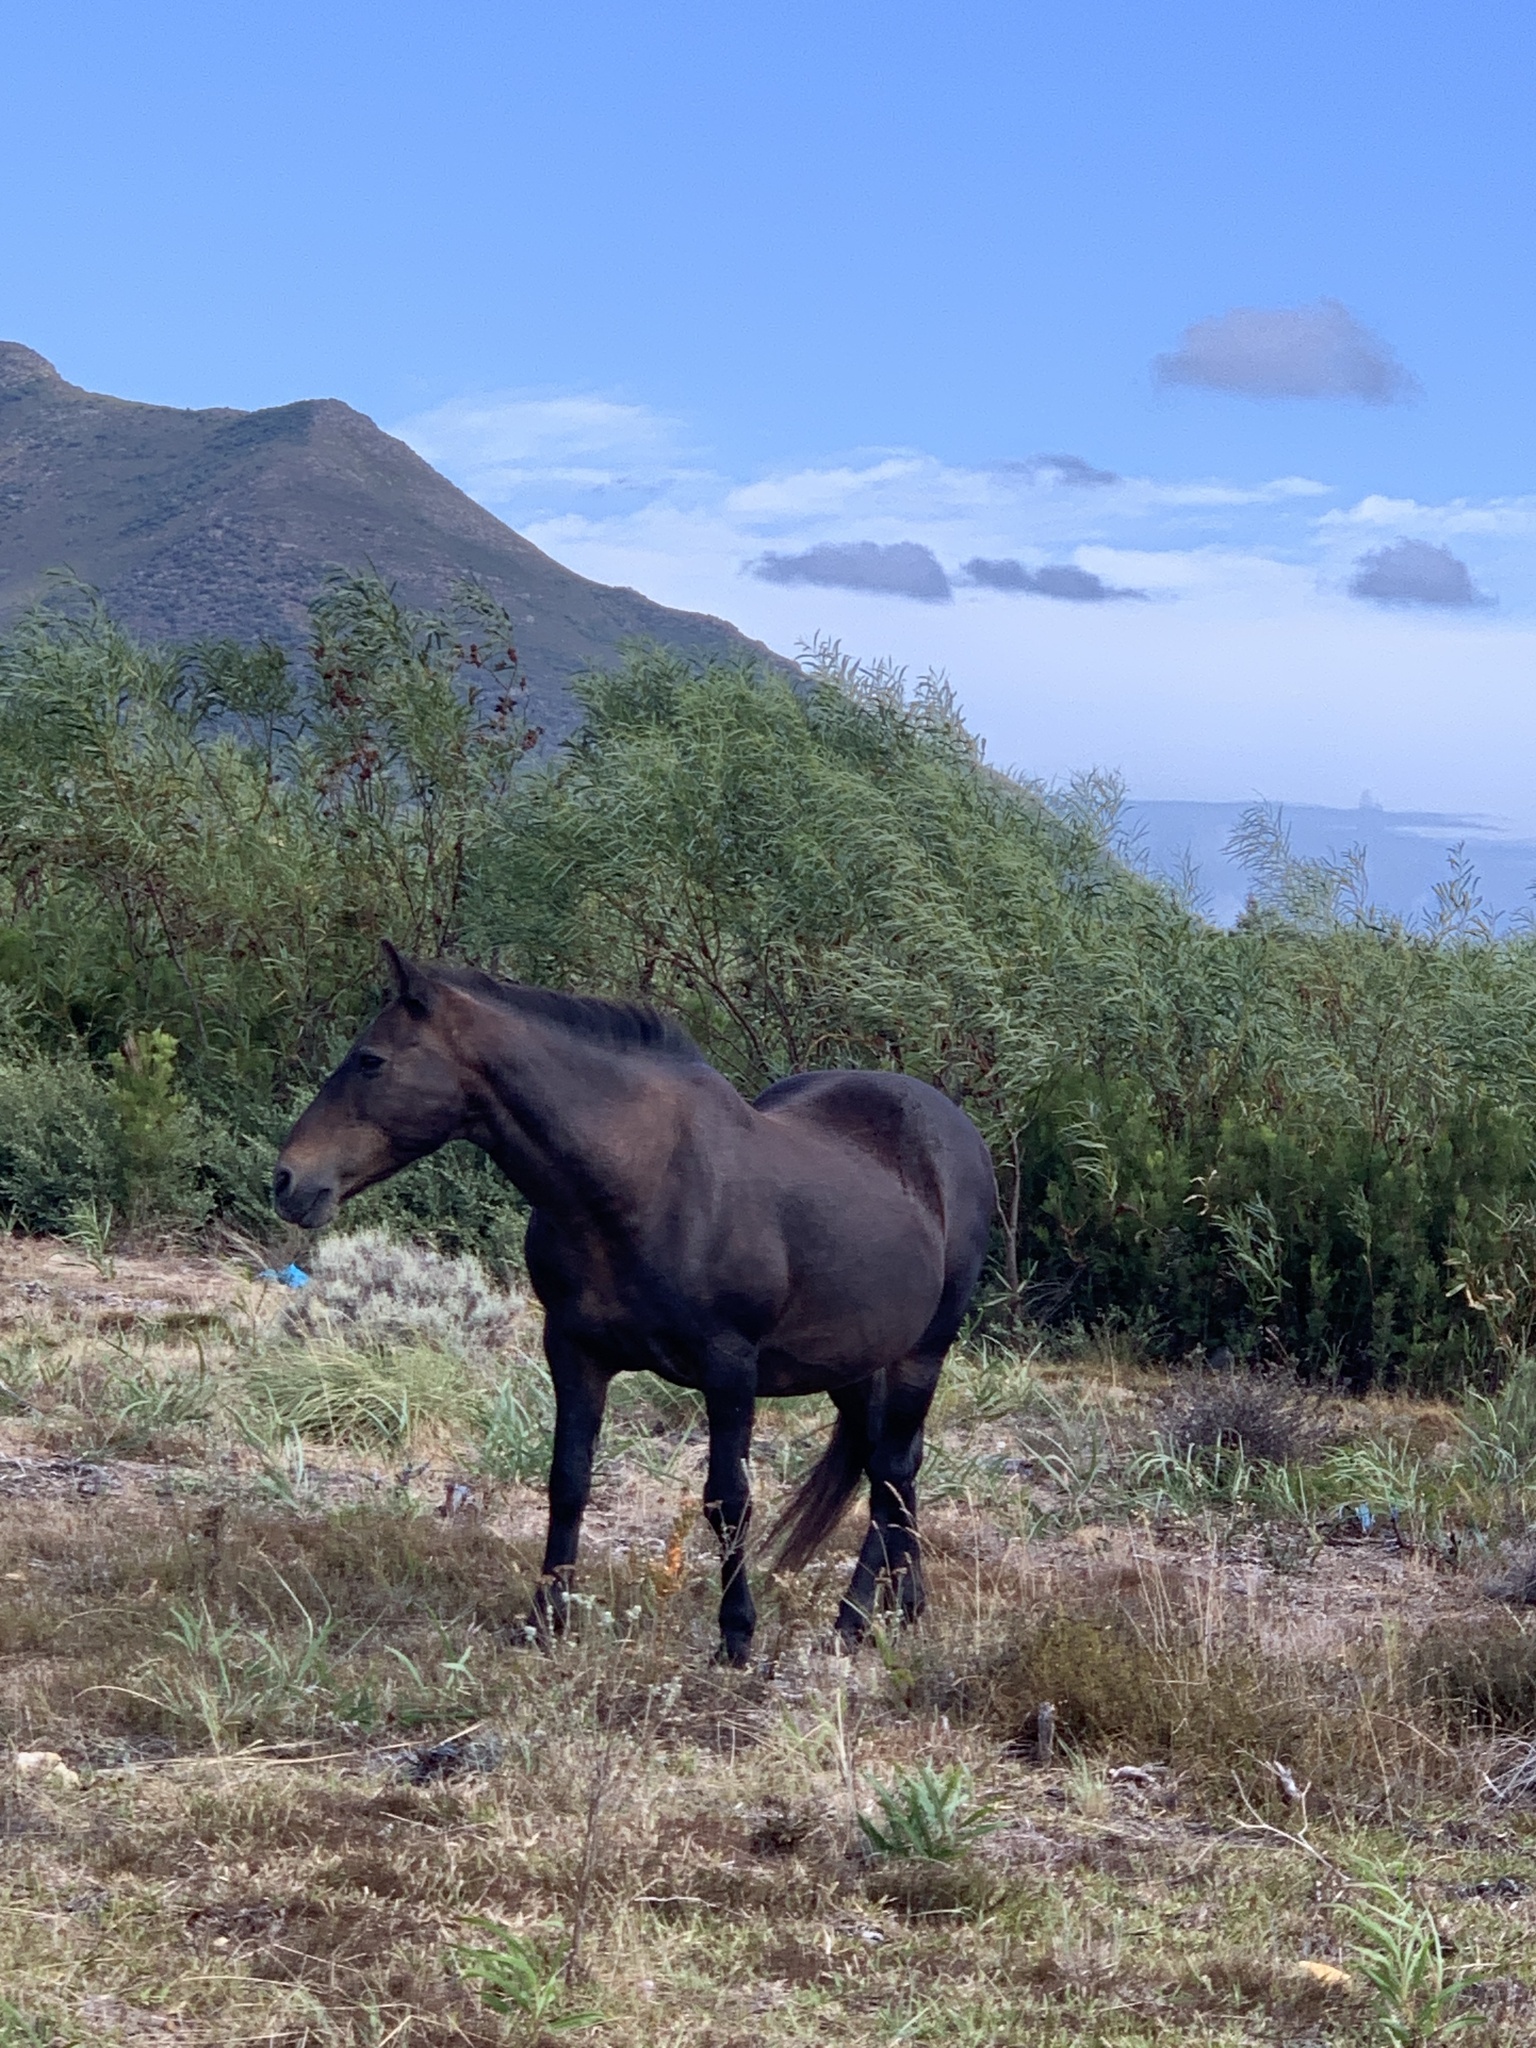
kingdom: Animalia
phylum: Chordata
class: Mammalia
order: Perissodactyla
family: Equidae
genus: Equus
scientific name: Equus caballus
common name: Horse
